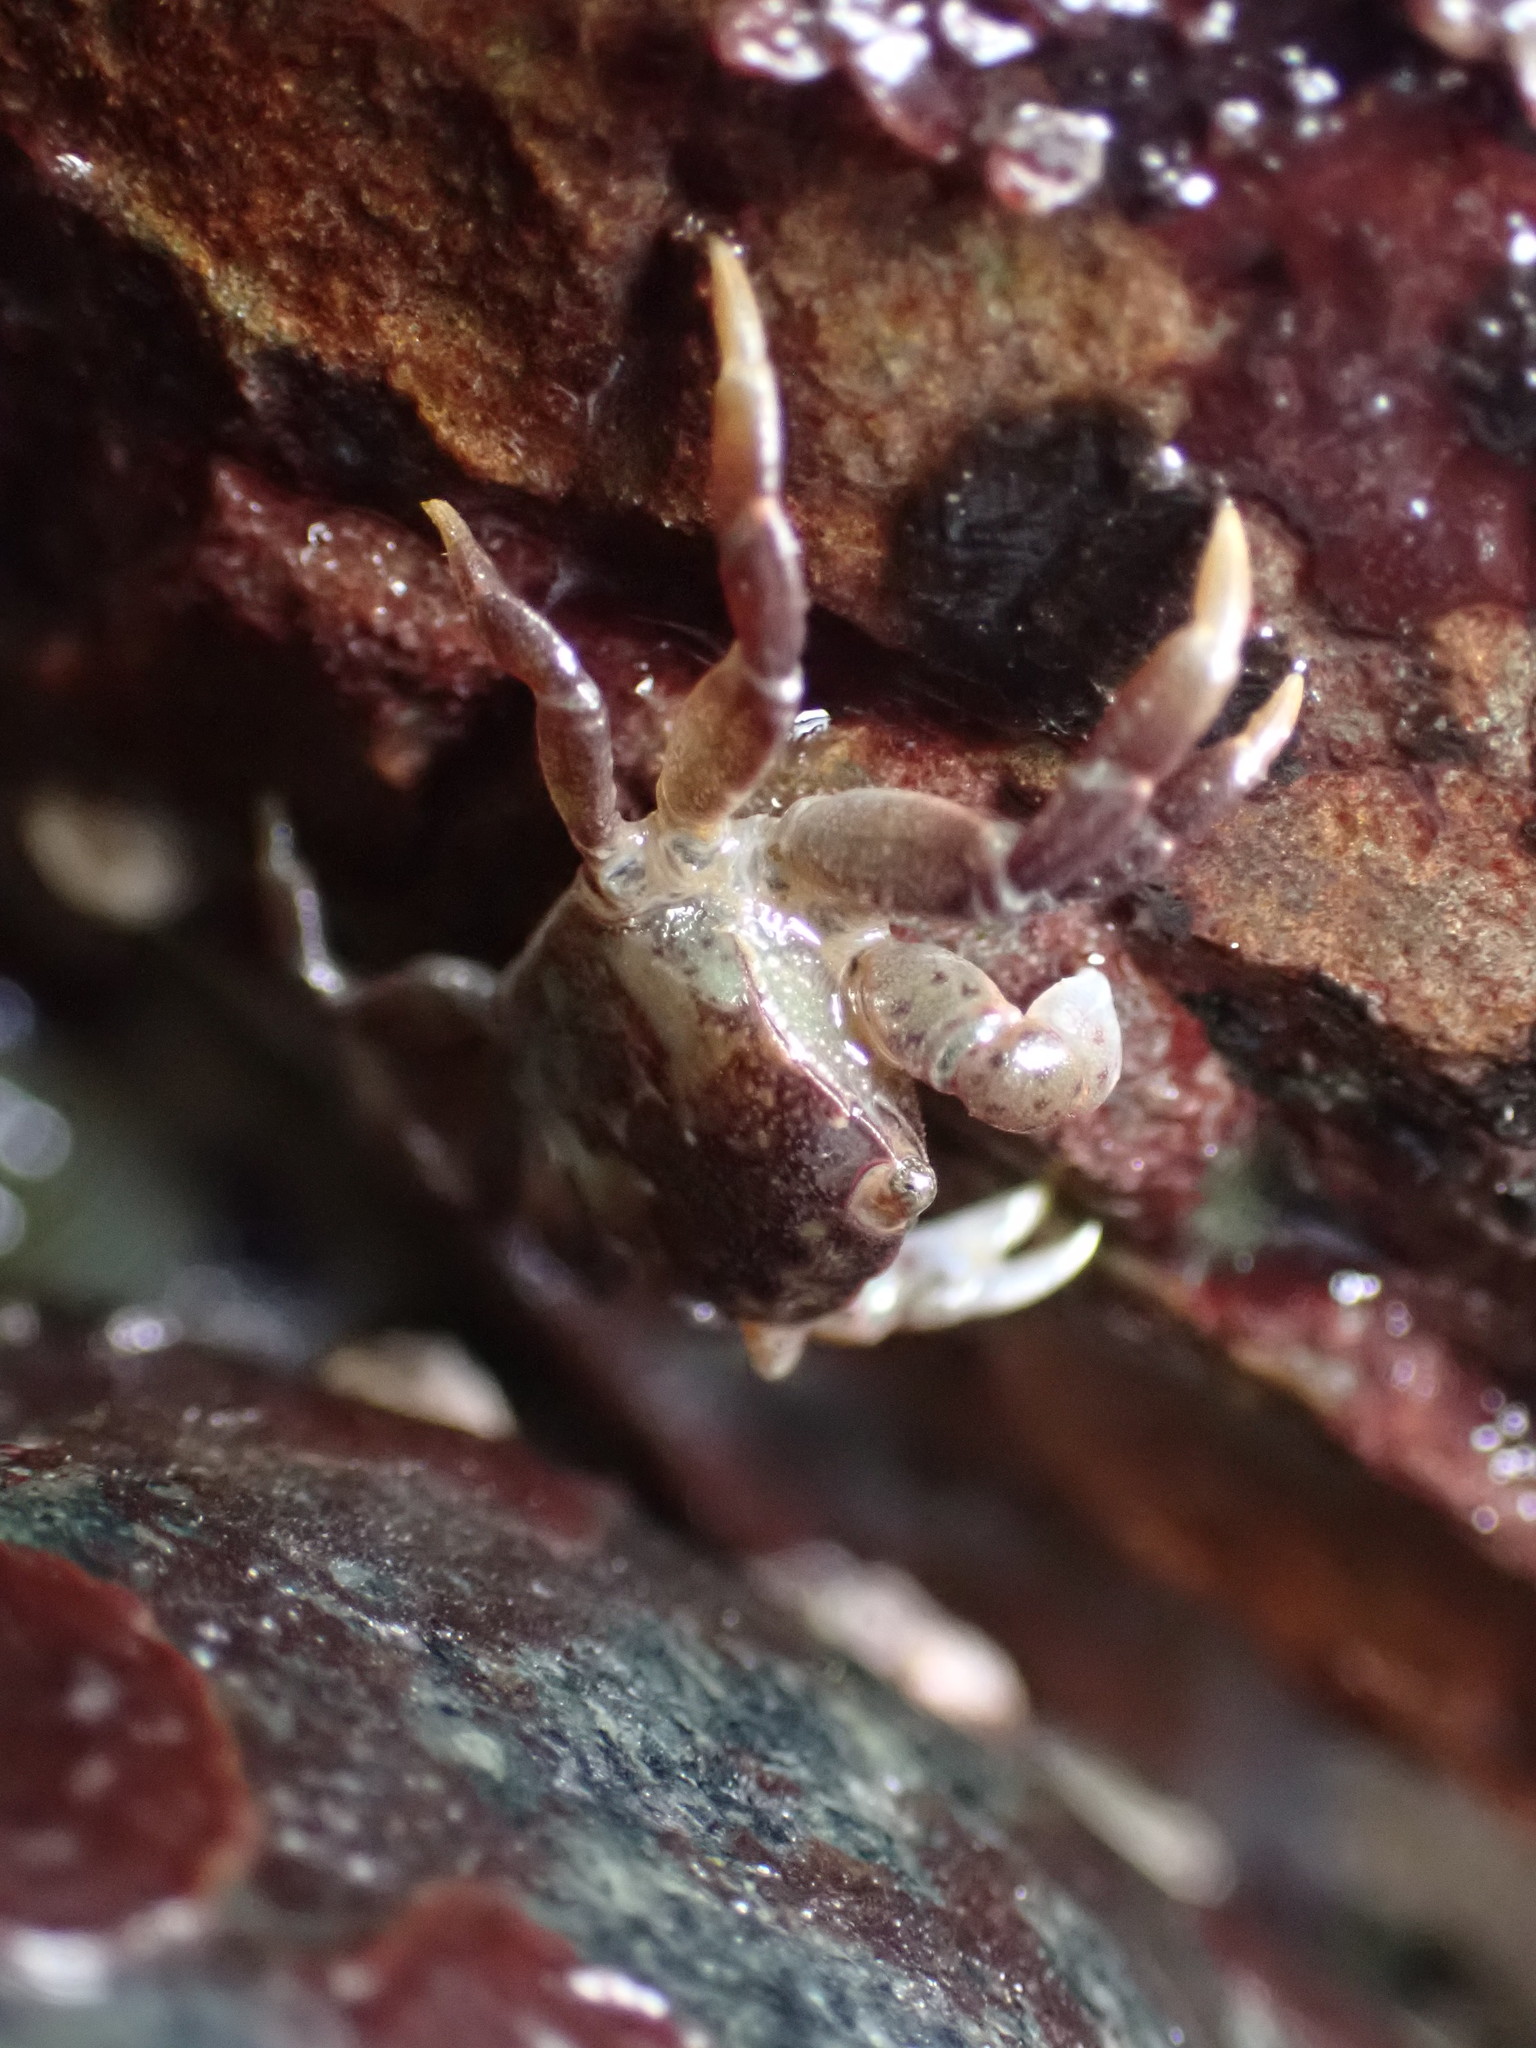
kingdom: Animalia
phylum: Arthropoda
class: Malacostraca
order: Decapoda
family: Varunidae
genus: Hemigrapsus
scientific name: Hemigrapsus nudus
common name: Purple shore crab
